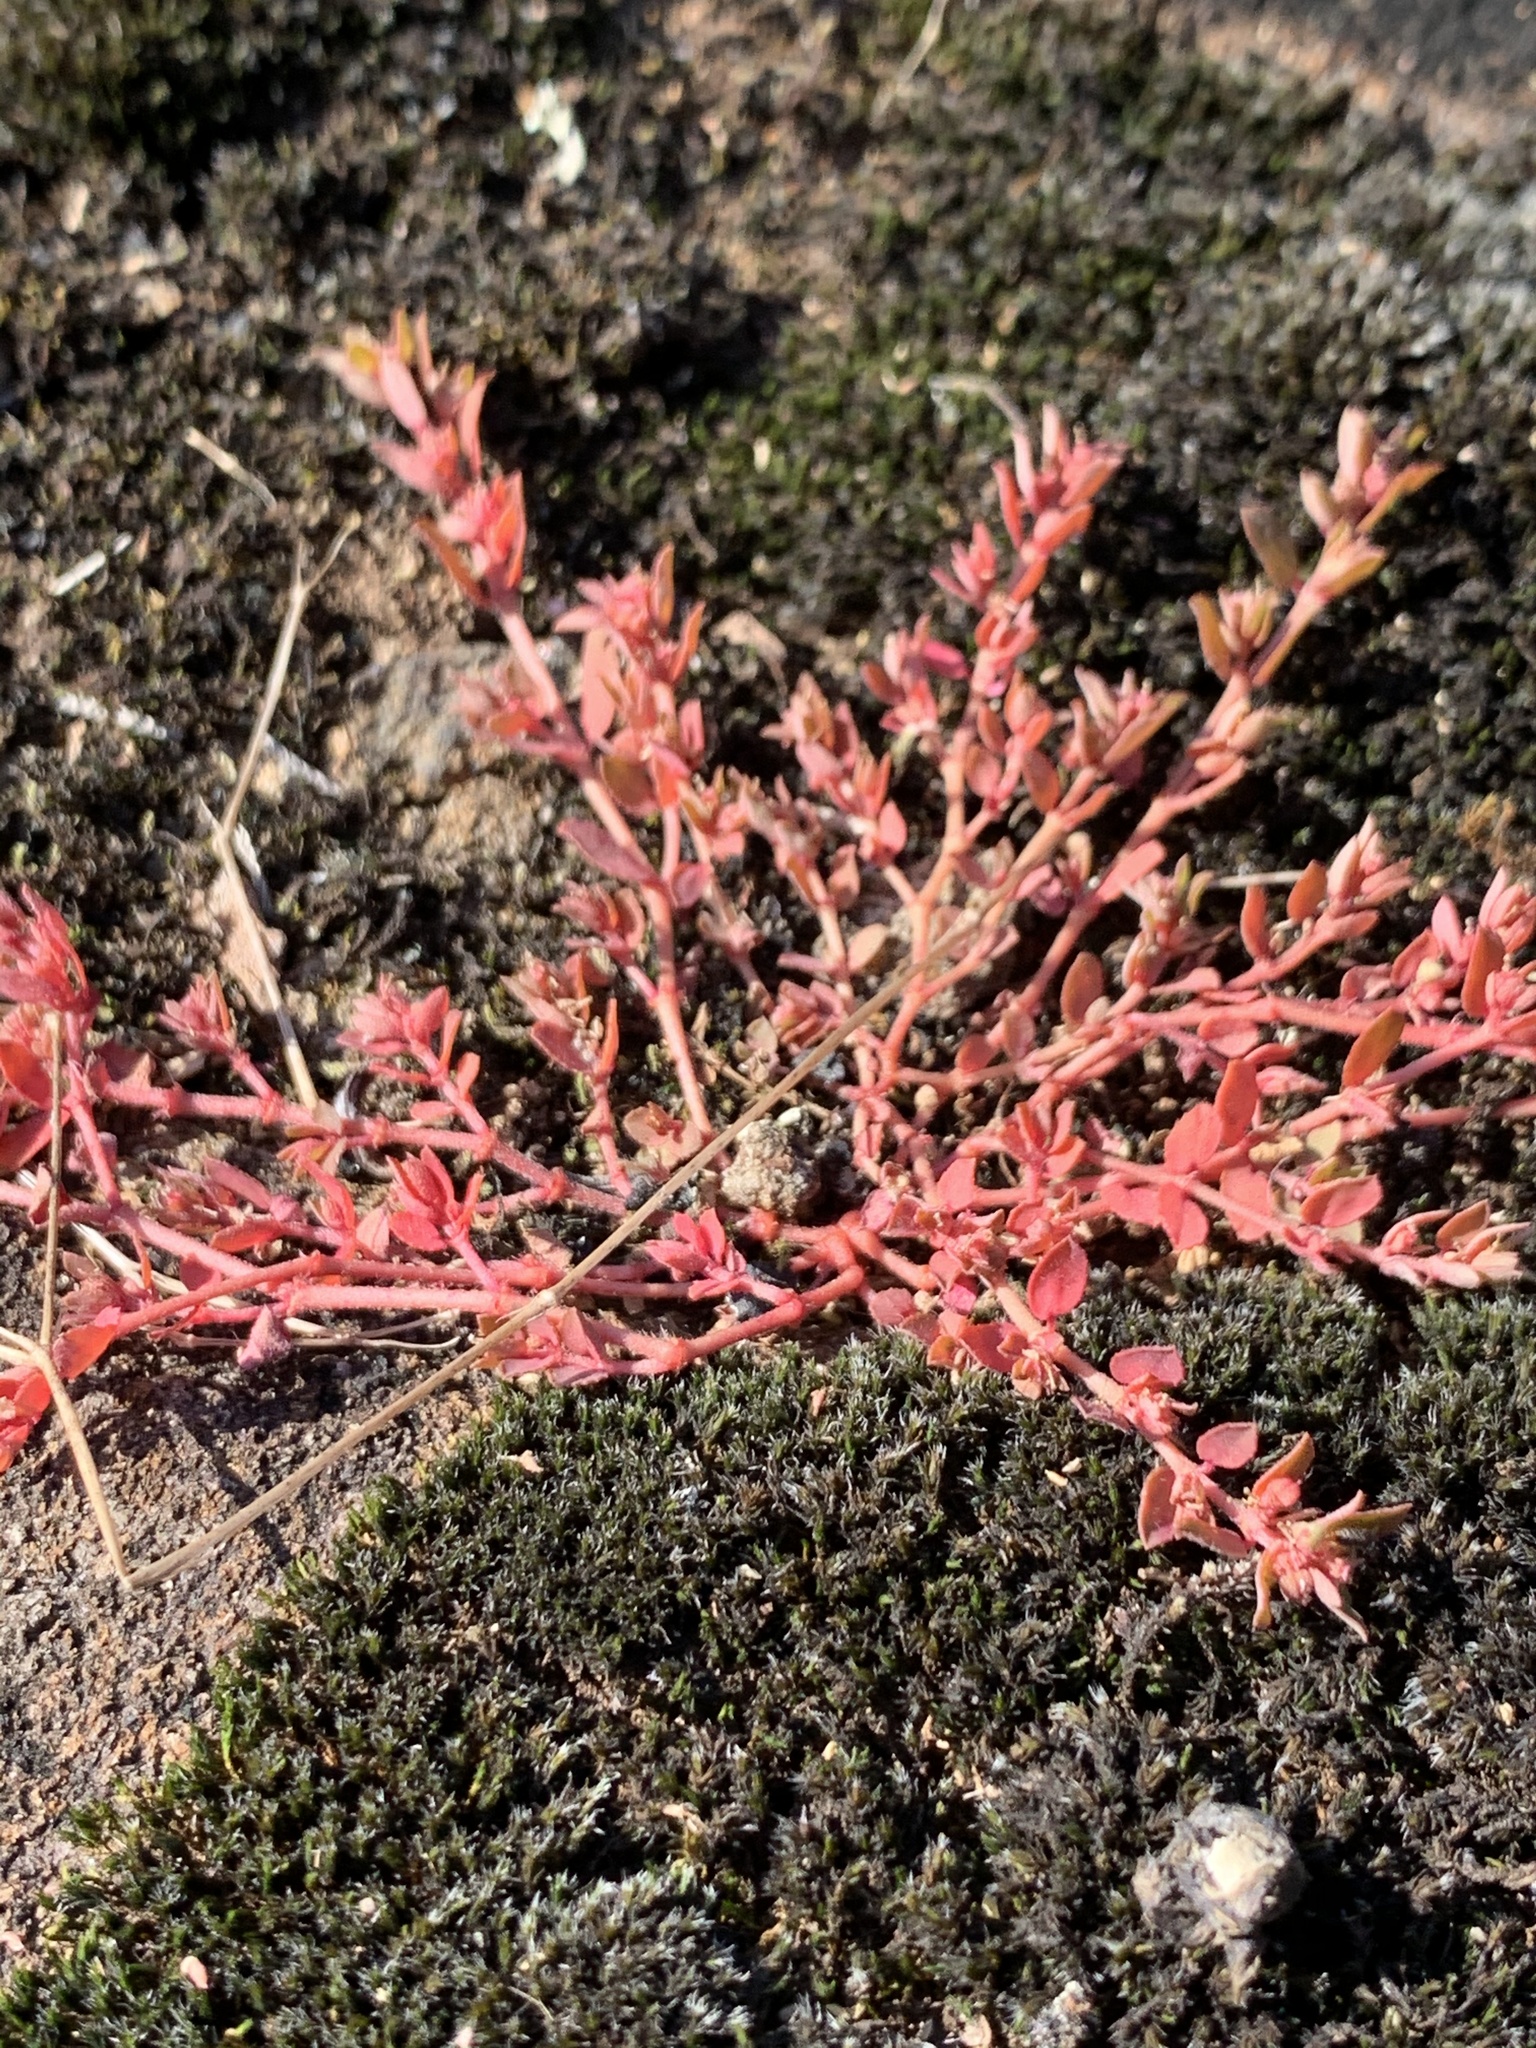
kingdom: Plantae
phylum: Tracheophyta
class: Magnoliopsida
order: Malpighiales
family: Euphorbiaceae
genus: Euphorbia
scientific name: Euphorbia maculata
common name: Spotted spurge
